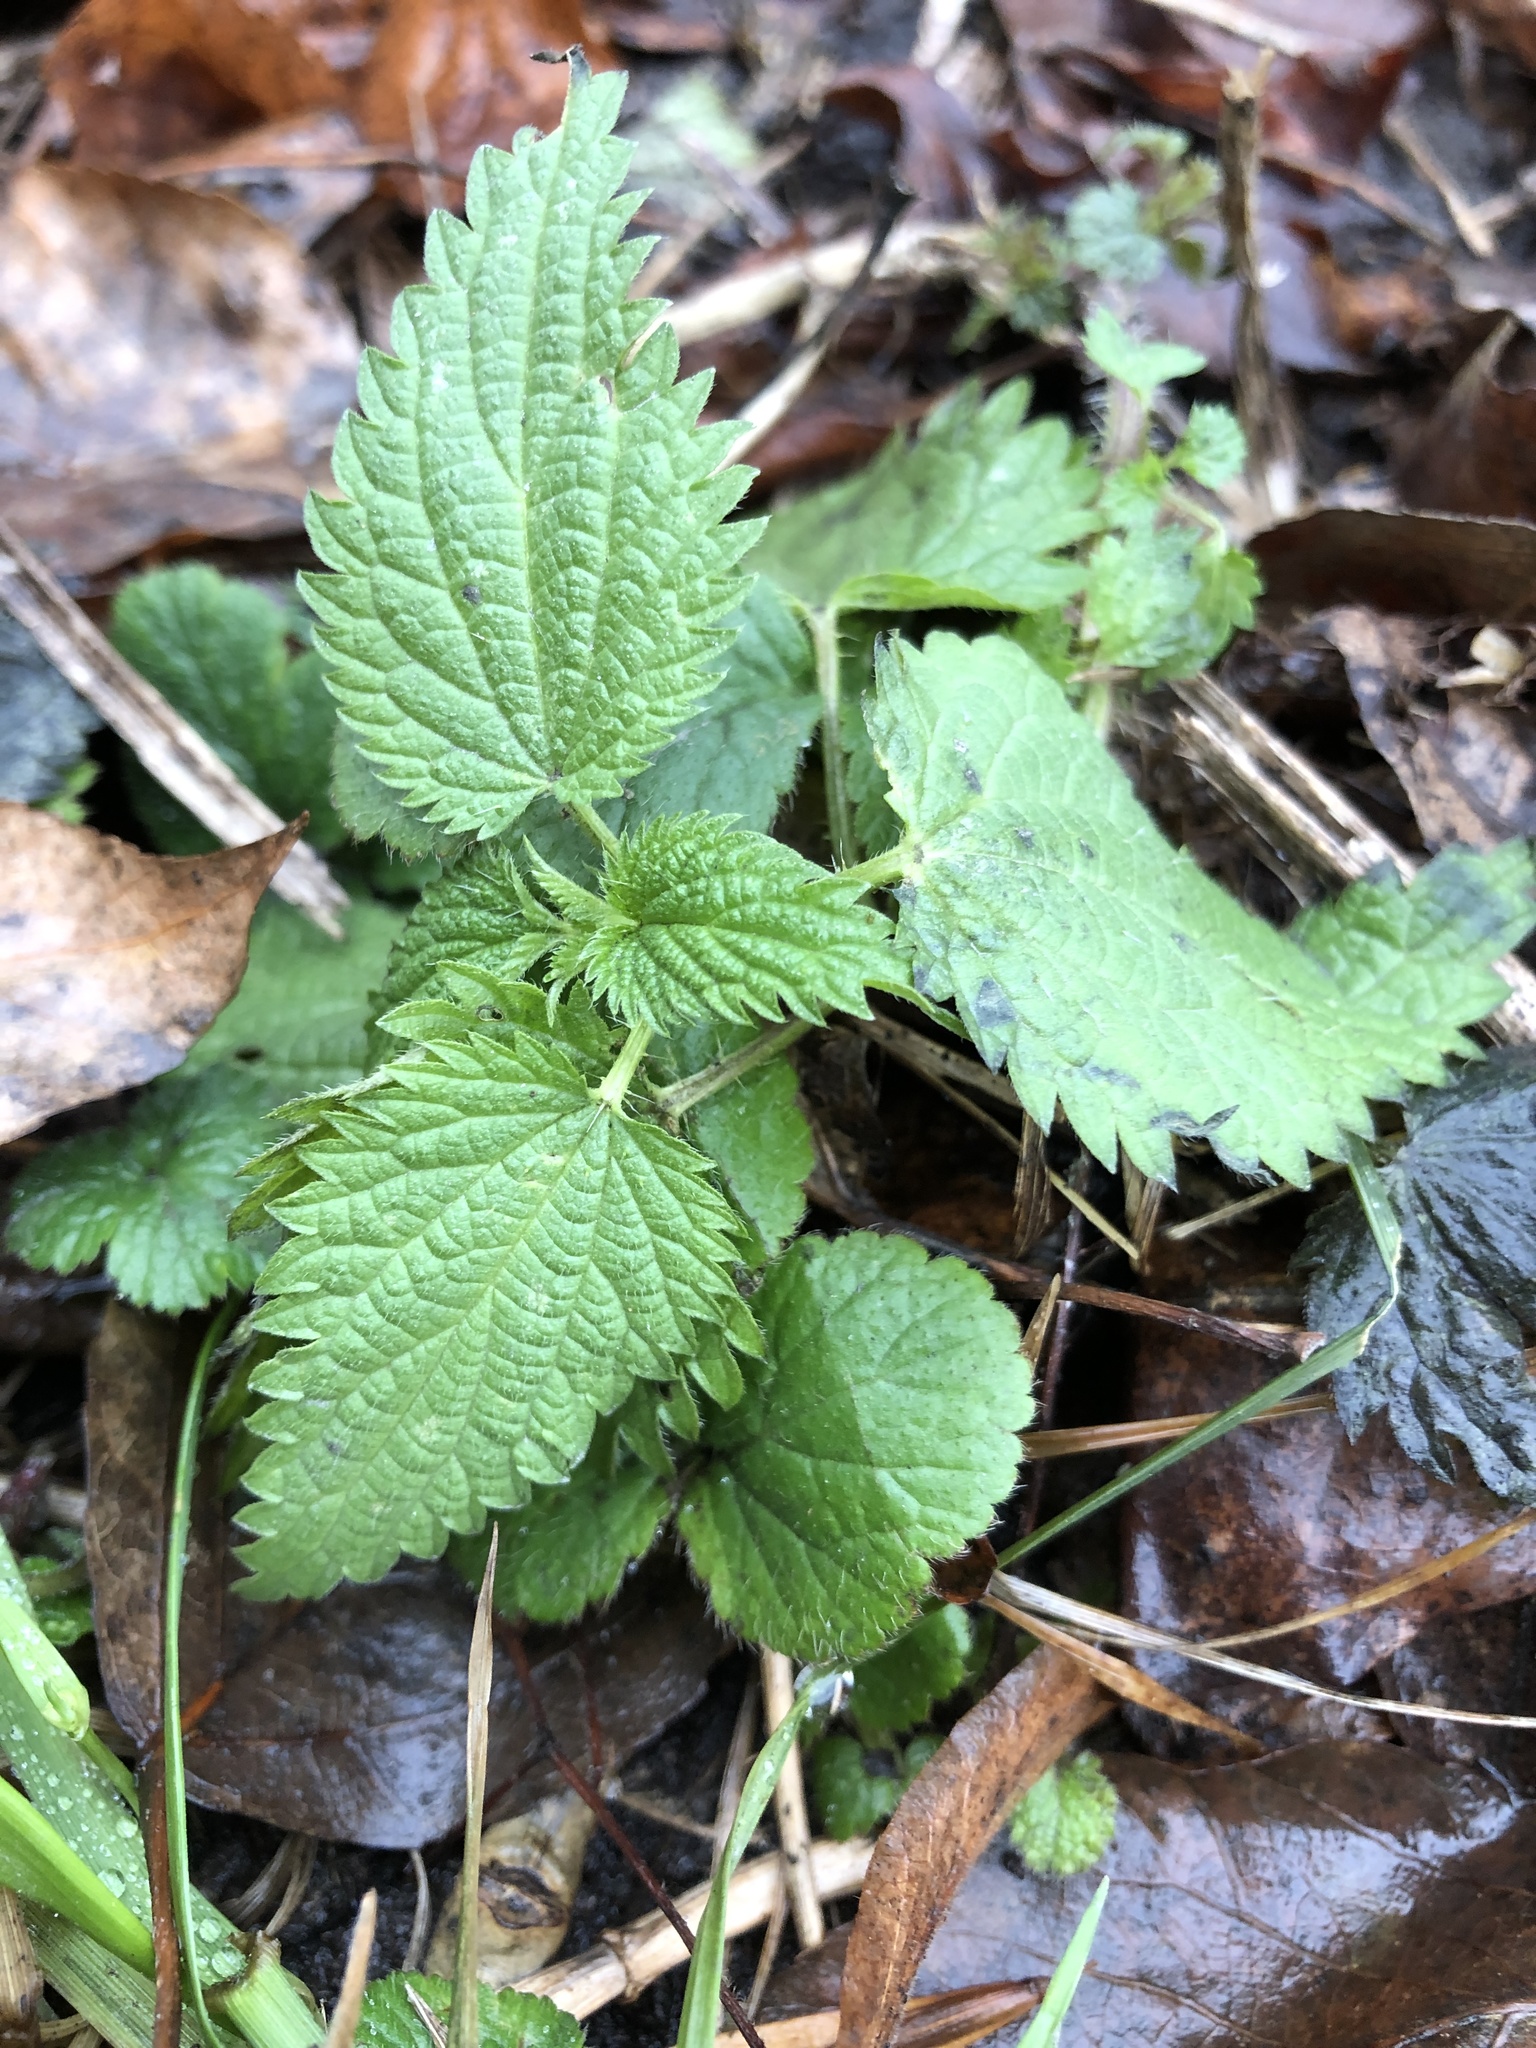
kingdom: Plantae
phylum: Tracheophyta
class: Magnoliopsida
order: Rosales
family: Urticaceae
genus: Urtica
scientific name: Urtica dioica
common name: Common nettle
